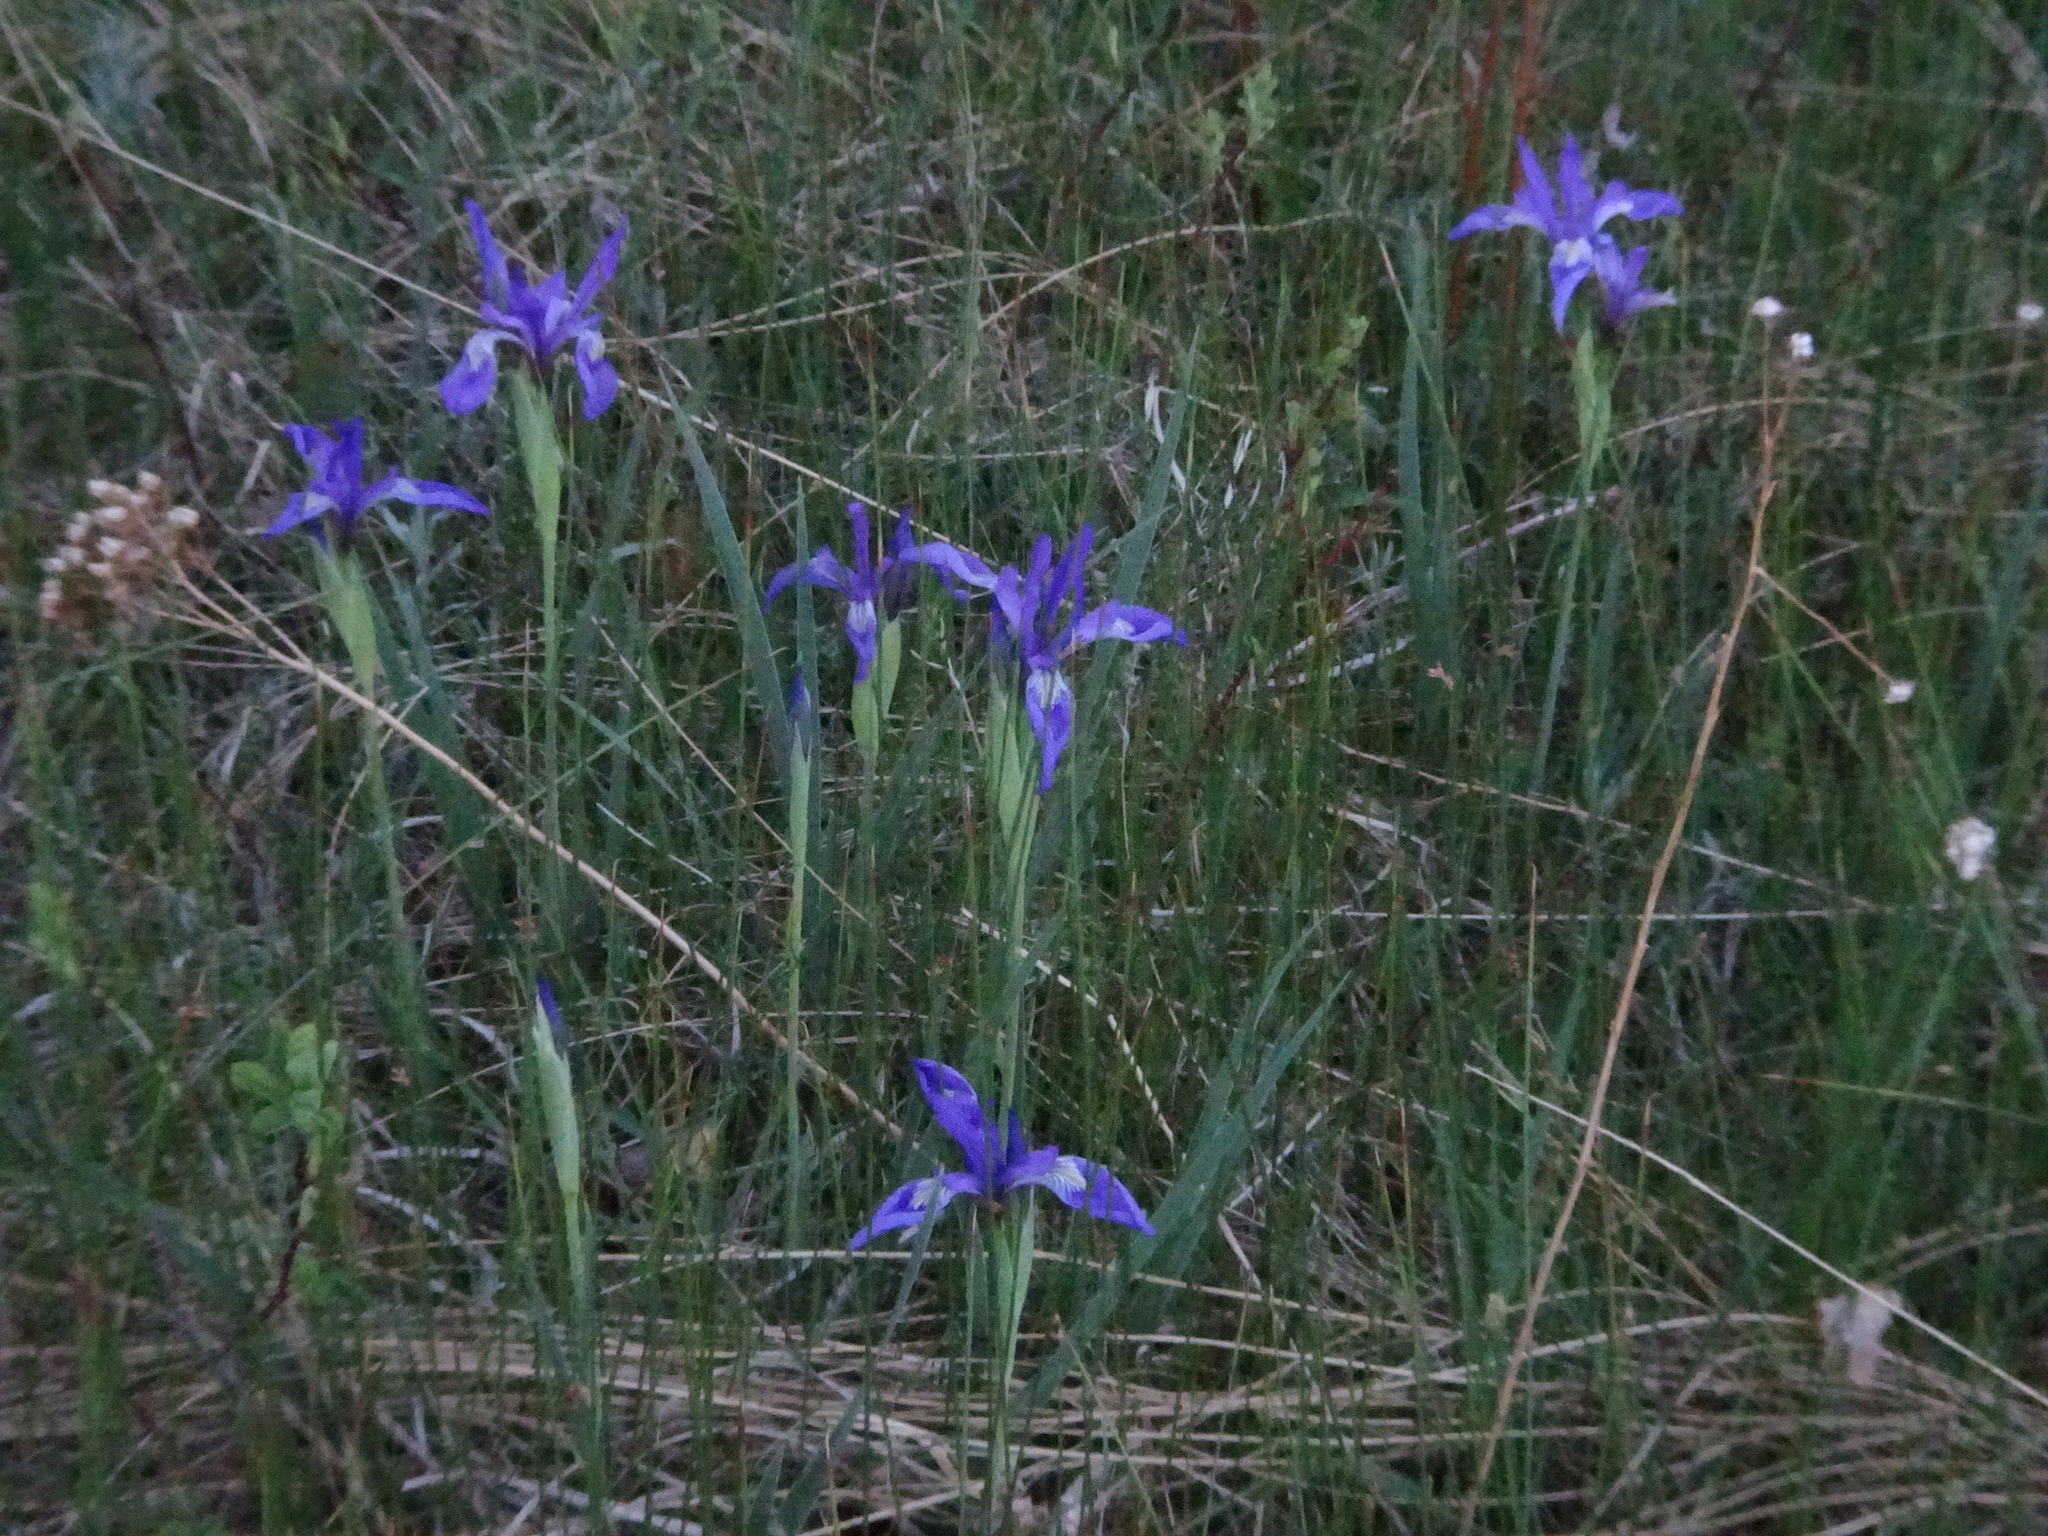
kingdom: Plantae
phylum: Tracheophyta
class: Liliopsida
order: Asparagales
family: Iridaceae
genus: Iris
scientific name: Iris missouriensis
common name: Rocky mountain iris
